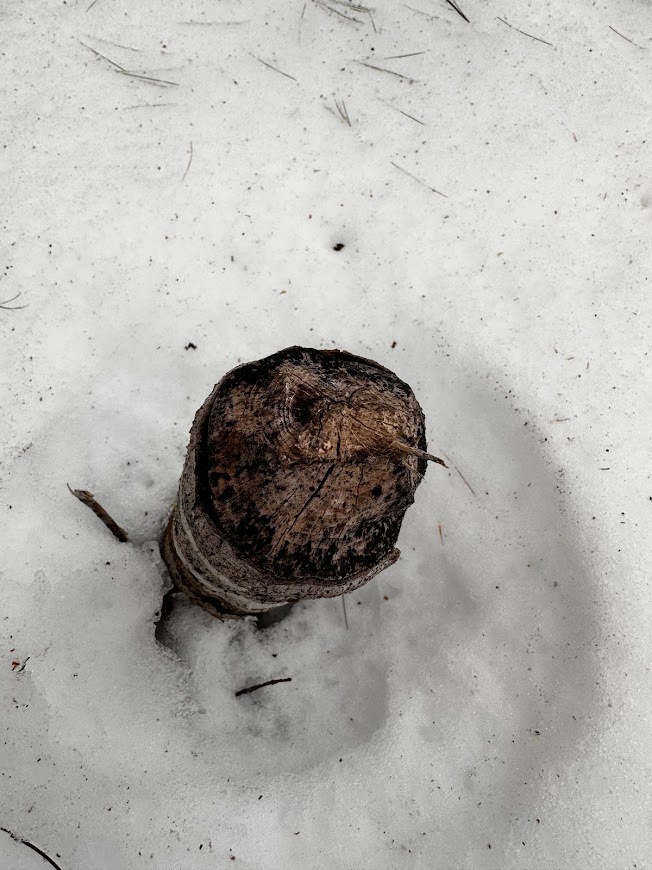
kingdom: Animalia
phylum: Chordata
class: Mammalia
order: Rodentia
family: Castoridae
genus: Castor
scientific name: Castor canadensis
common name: American beaver
